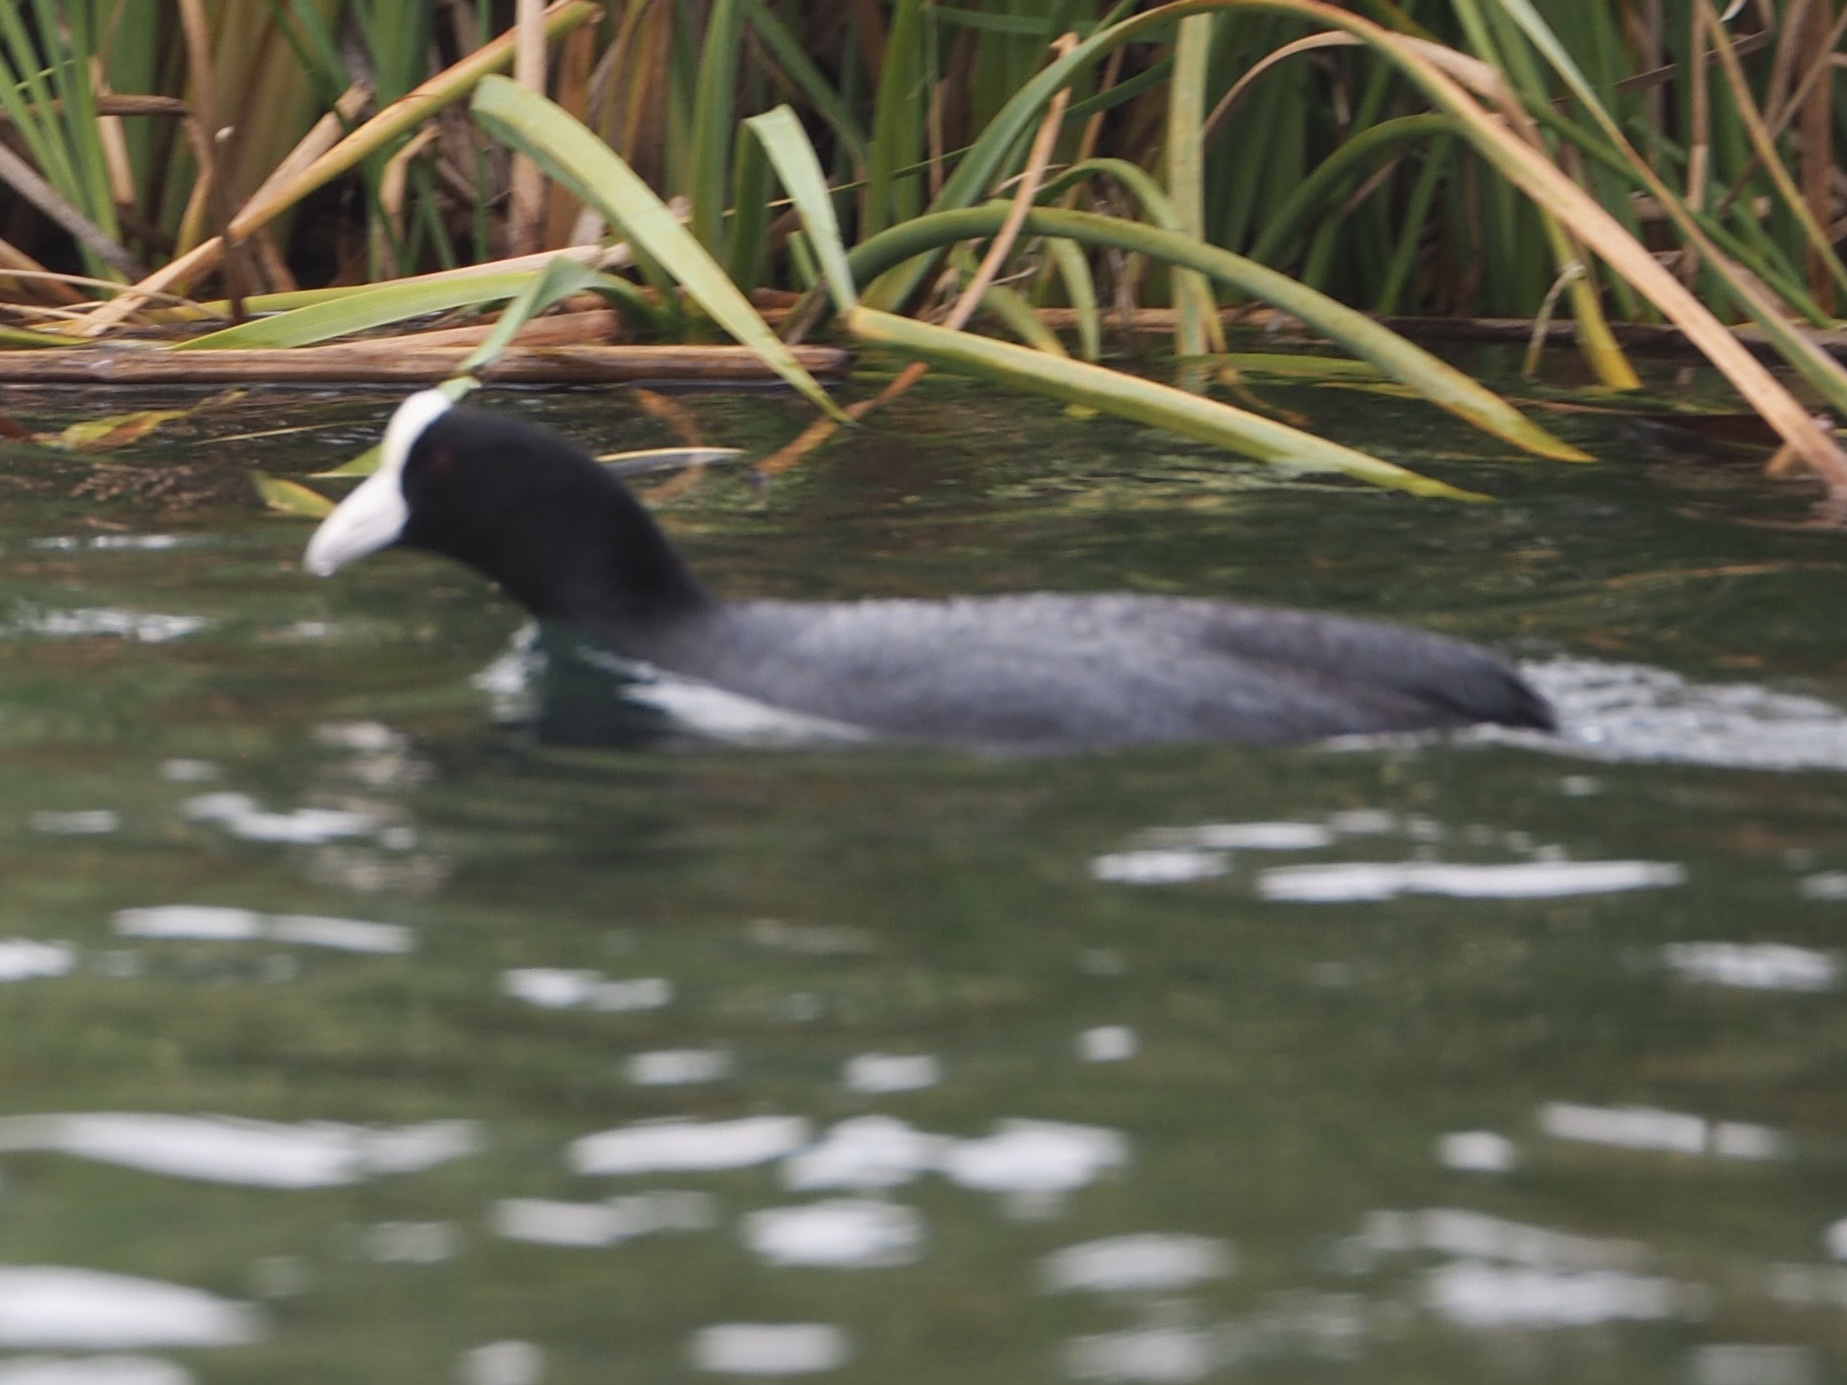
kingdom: Animalia
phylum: Chordata
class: Aves
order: Gruiformes
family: Rallidae
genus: Fulica
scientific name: Fulica ardesiaca
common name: Andean coot
